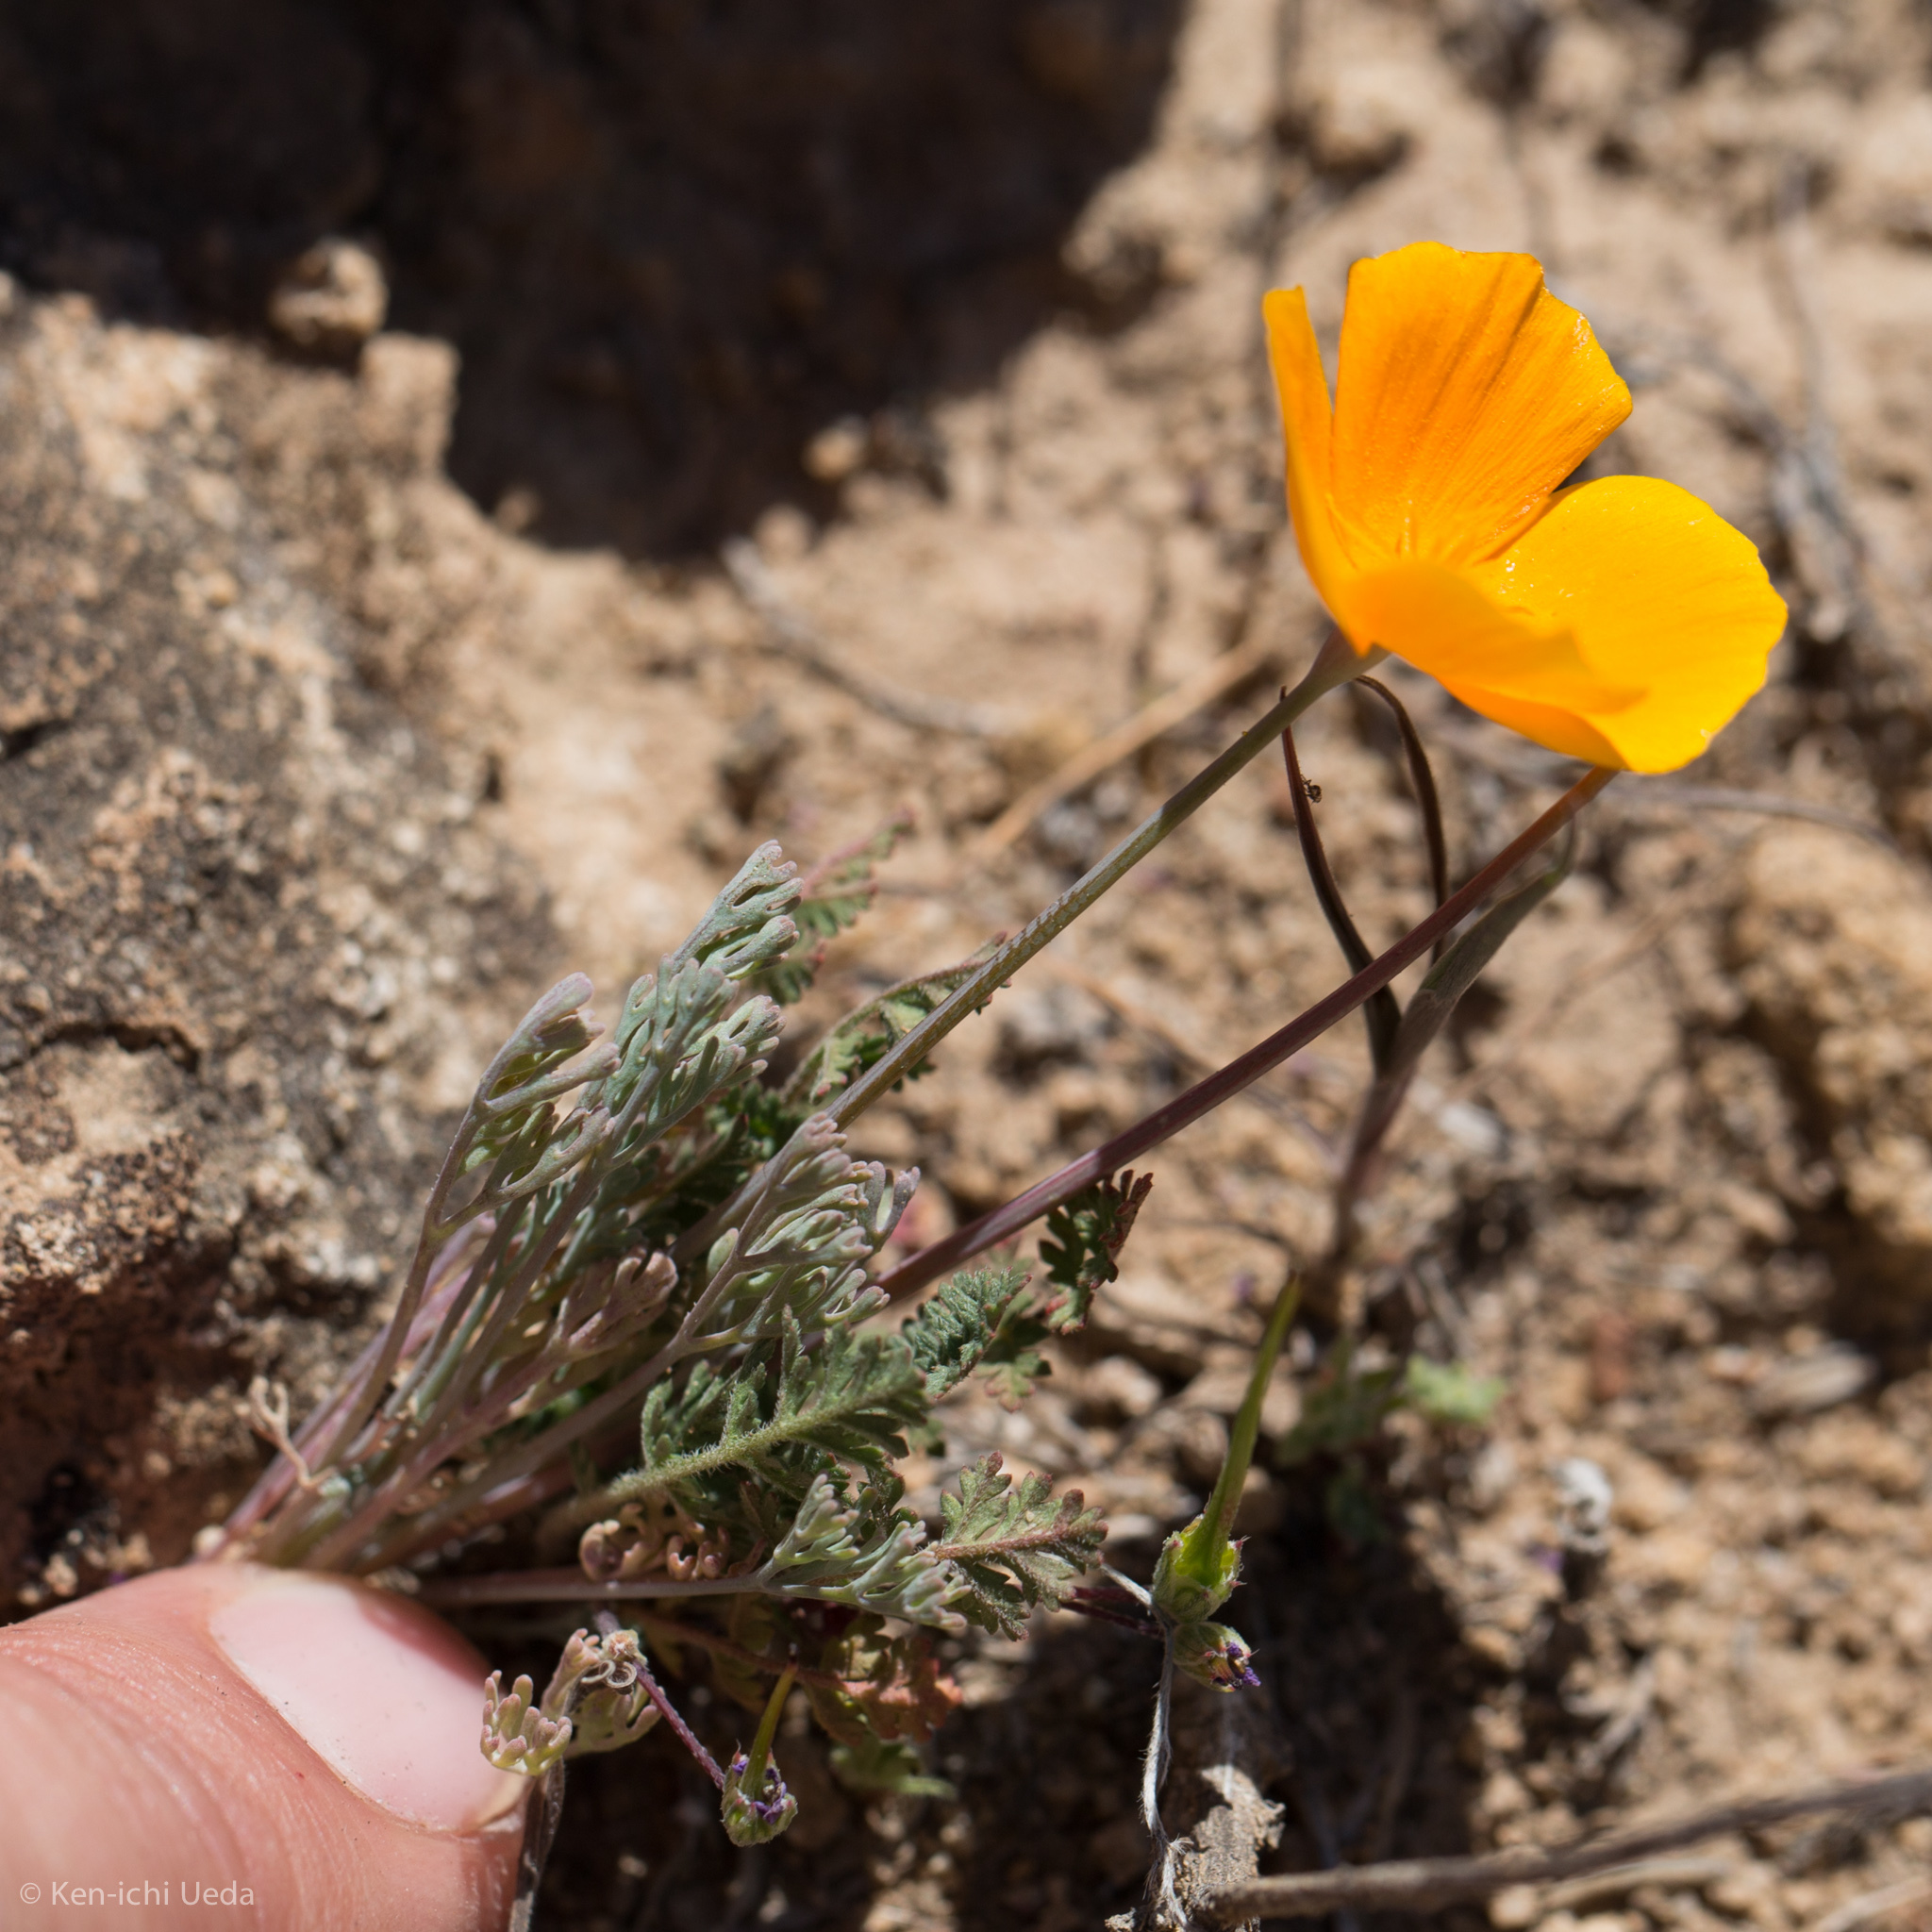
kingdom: Plantae
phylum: Tracheophyta
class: Magnoliopsida
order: Ranunculales
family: Papaveraceae
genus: Eschscholzia
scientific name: Eschscholzia lemmonii
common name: Lemmon's poppy
